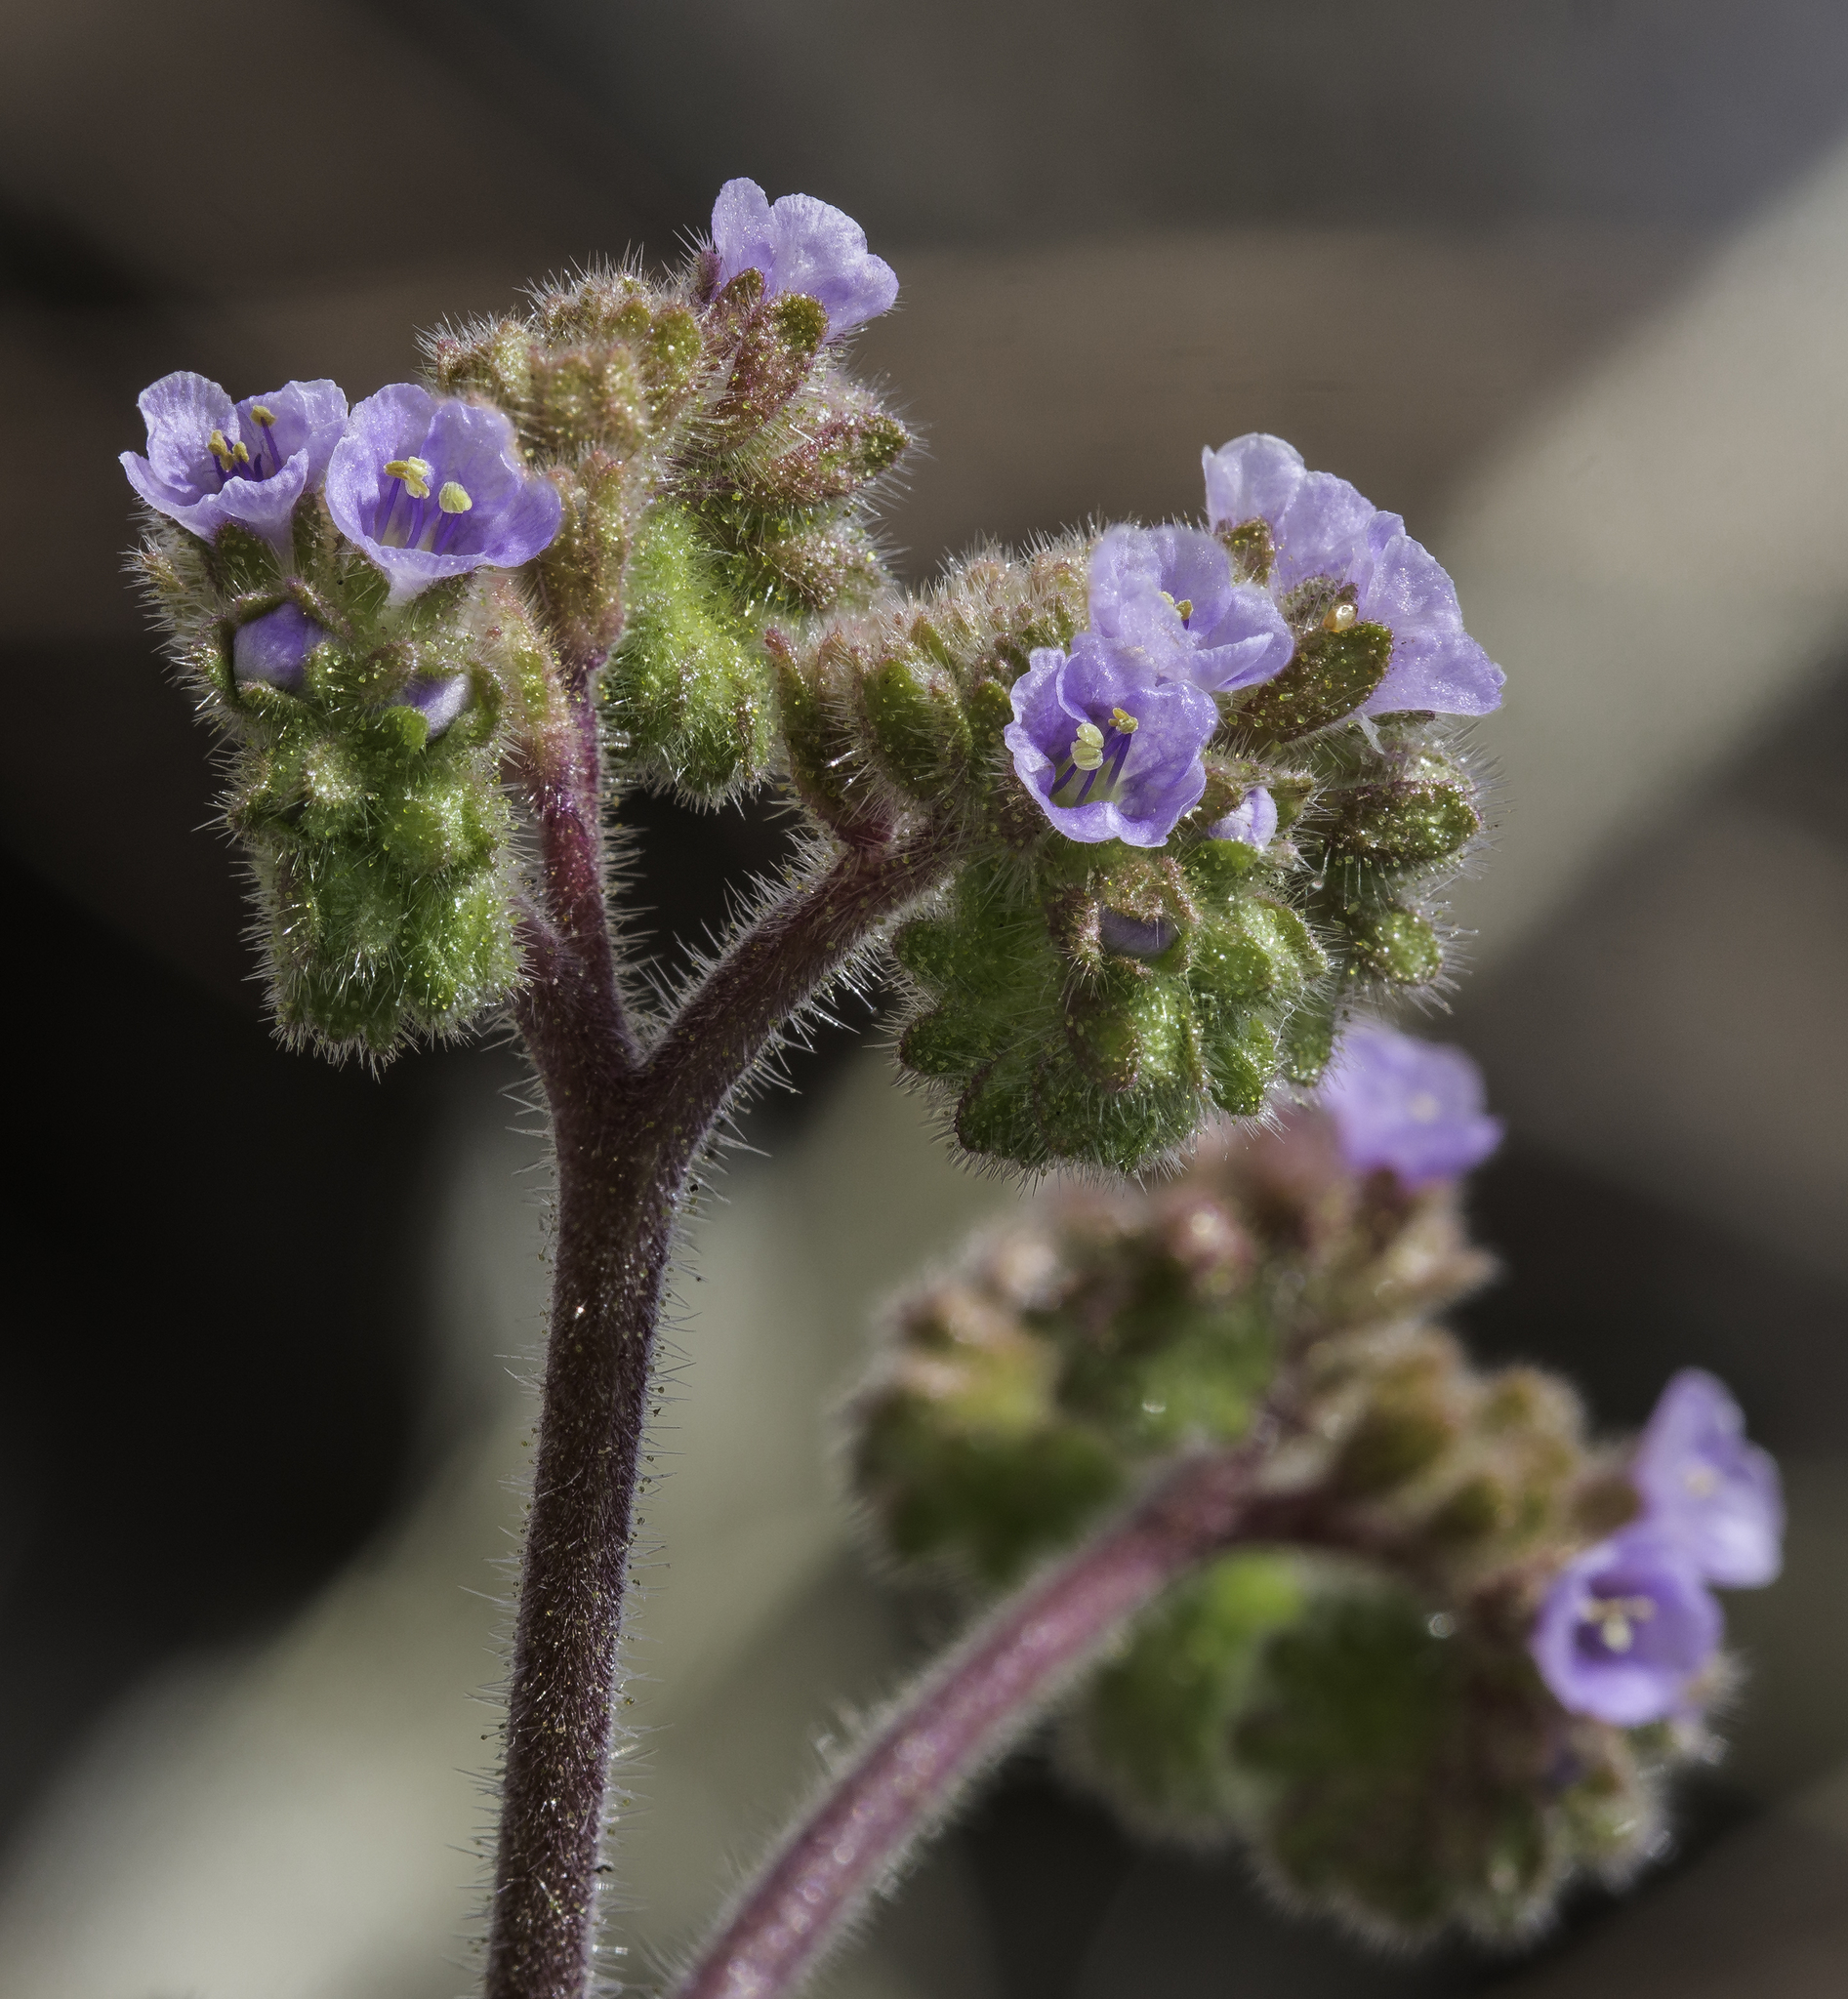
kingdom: Plantae
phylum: Tracheophyta
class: Magnoliopsida
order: Boraginales
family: Hydrophyllaceae
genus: Phacelia
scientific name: Phacelia coerulea
